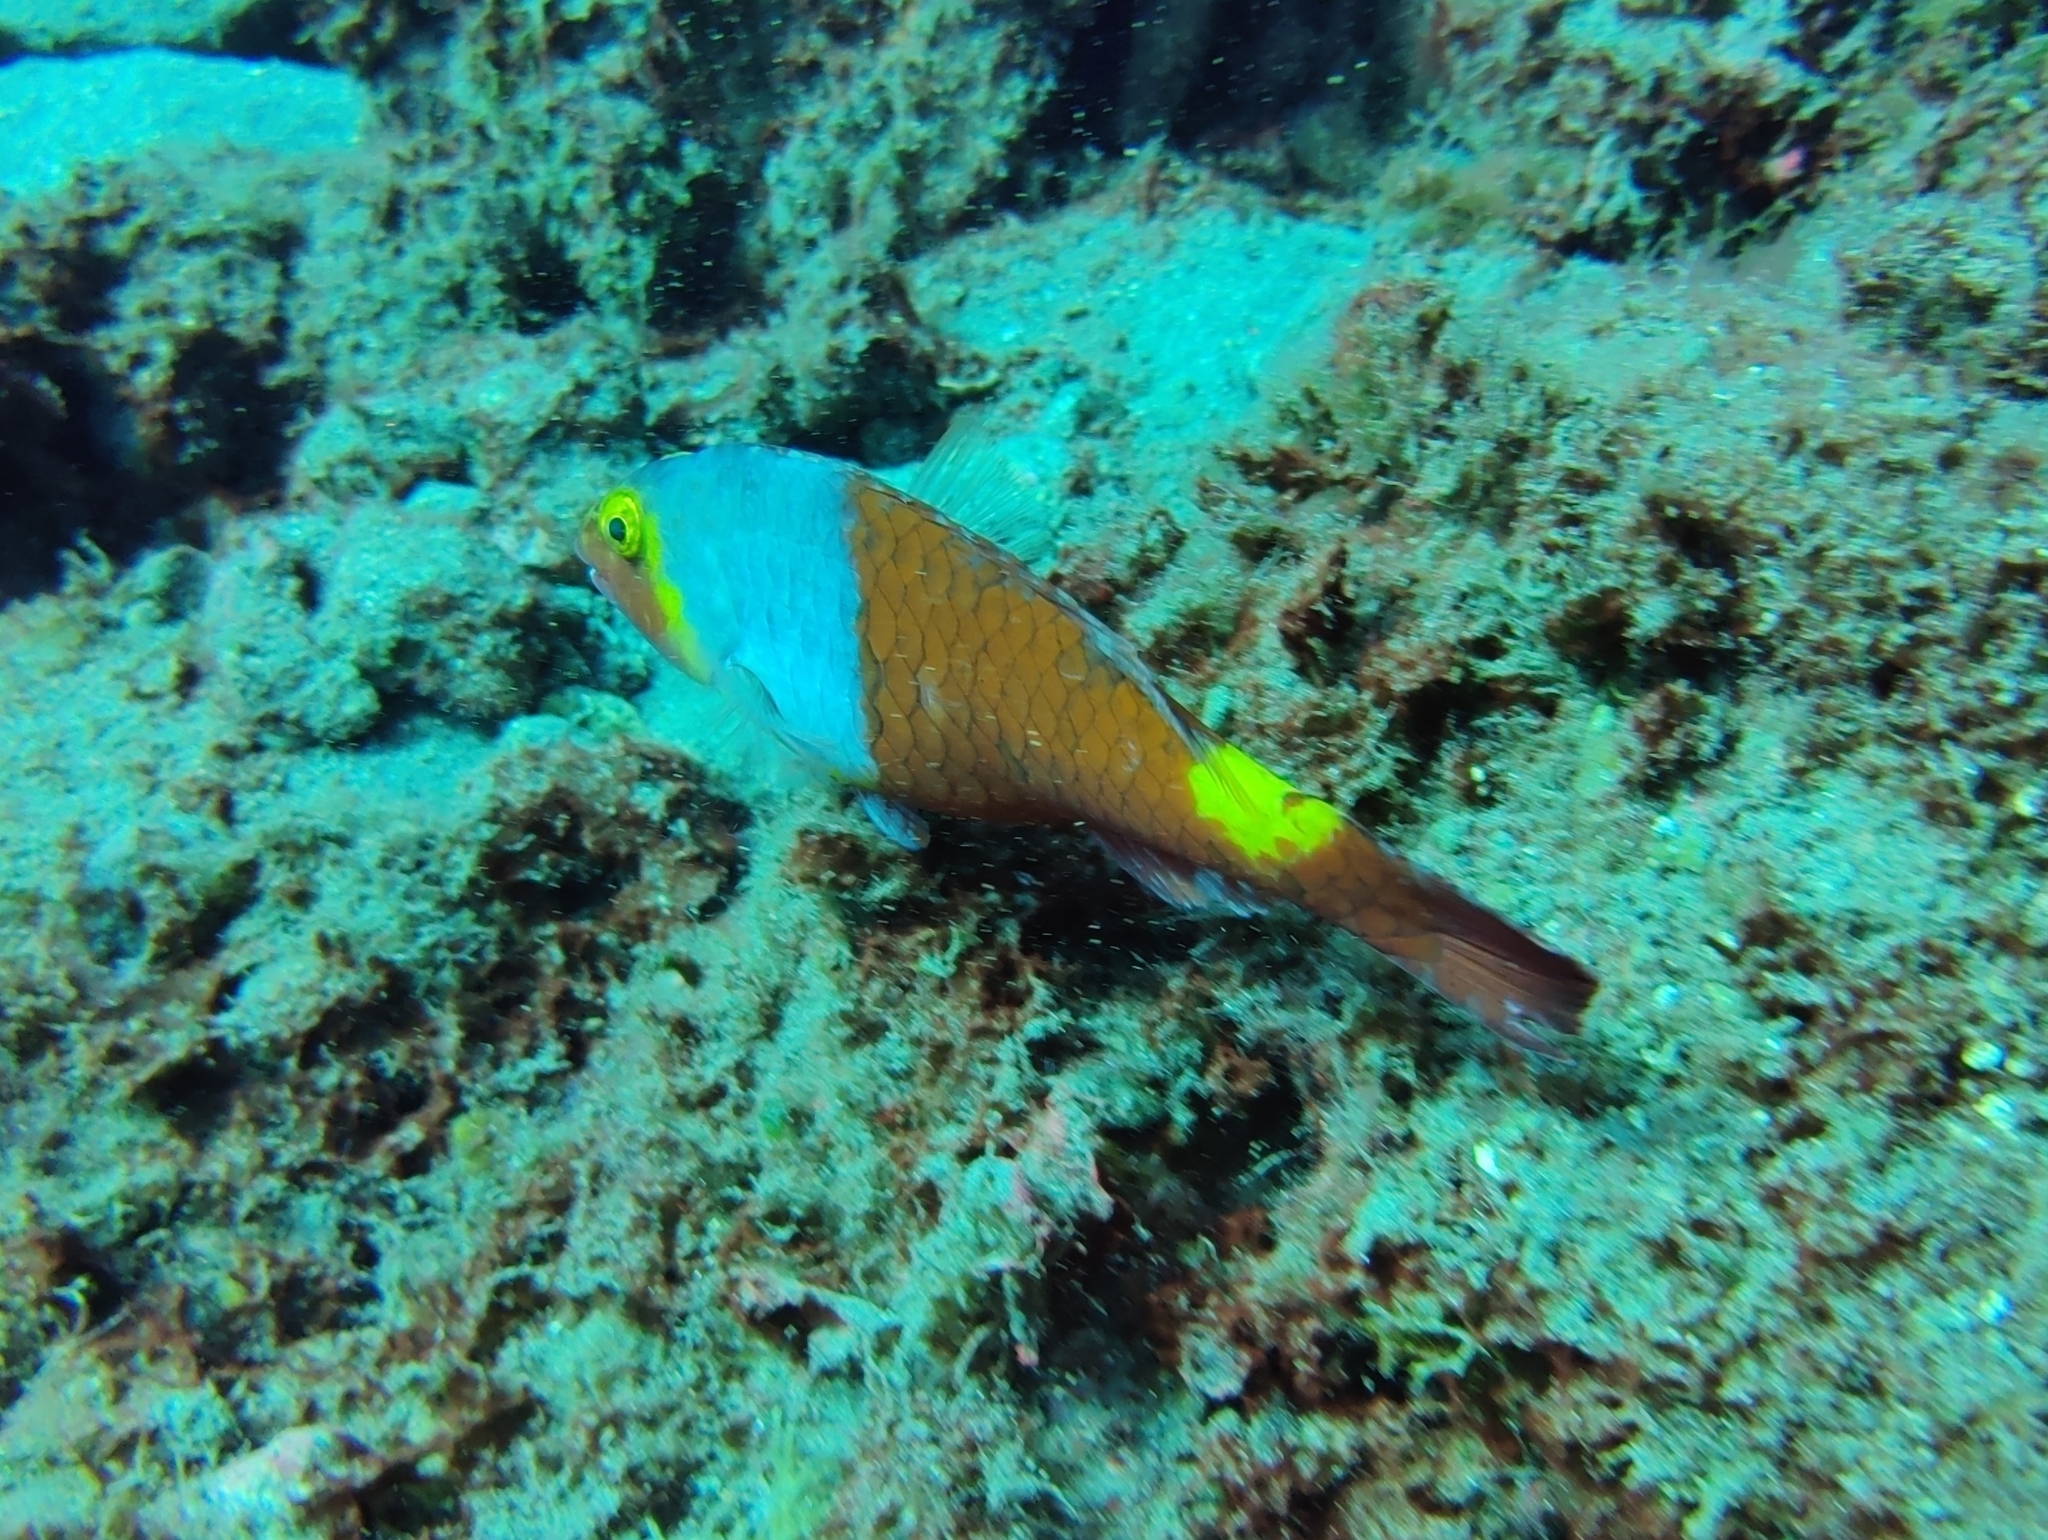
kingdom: Animalia
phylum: Chordata
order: Perciformes
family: Scaridae
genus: Sparisoma
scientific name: Sparisoma cretense
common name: Parrotfish
